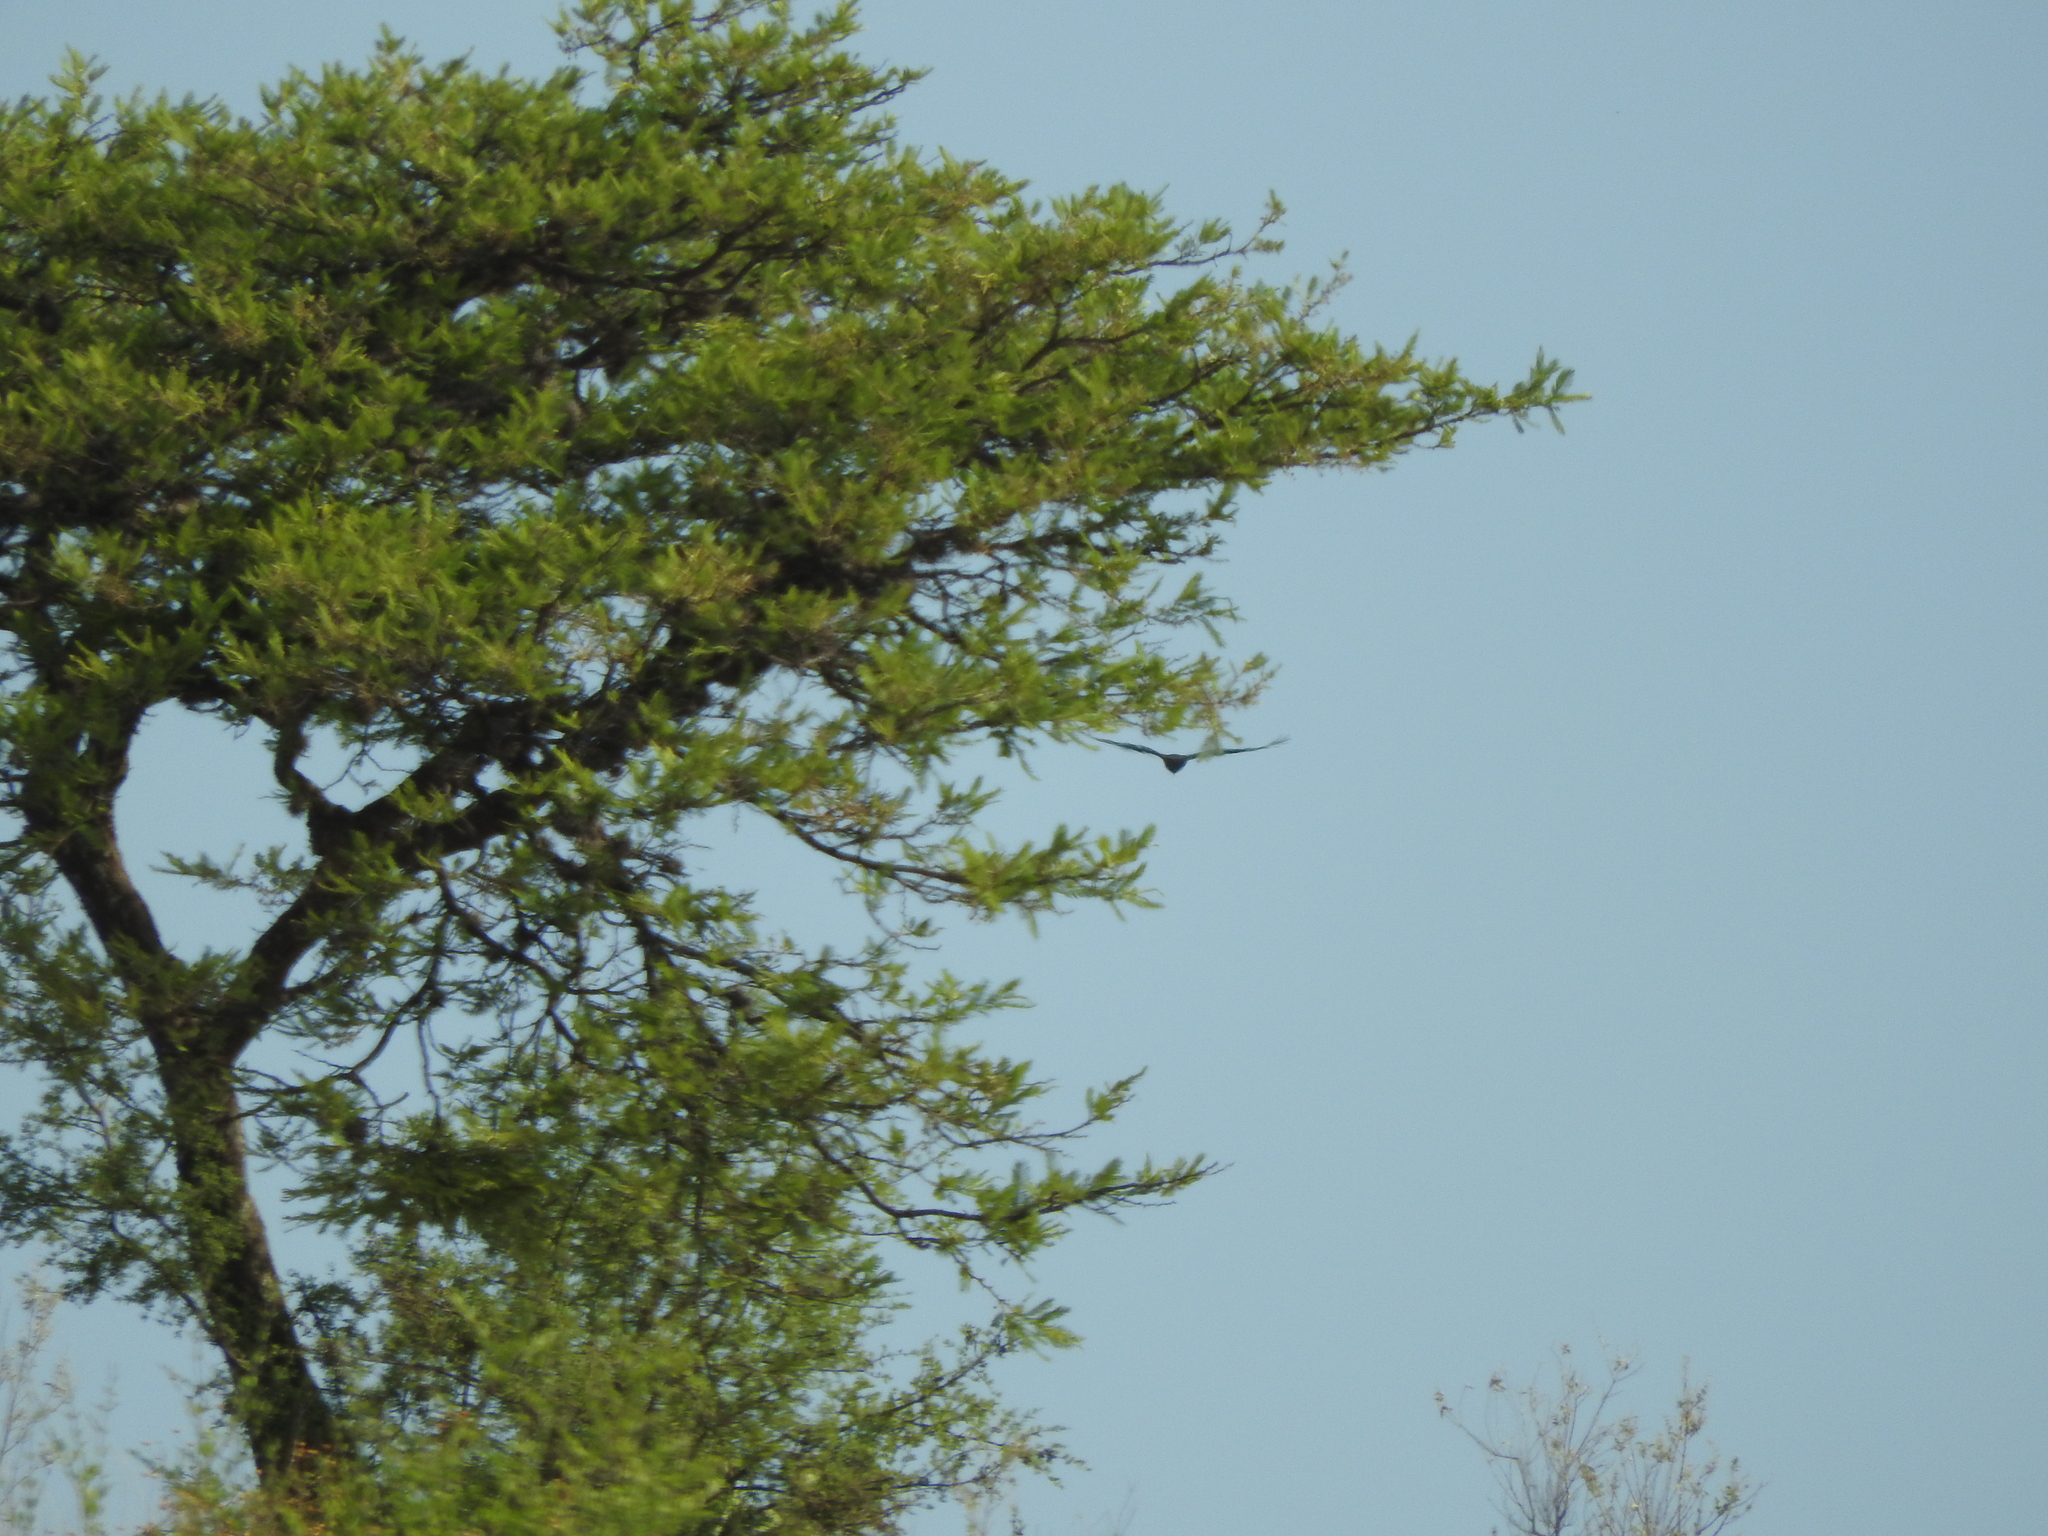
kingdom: Animalia
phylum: Chordata
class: Aves
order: Accipitriformes
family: Cathartidae
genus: Cathartes
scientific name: Cathartes aura
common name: Turkey vulture
